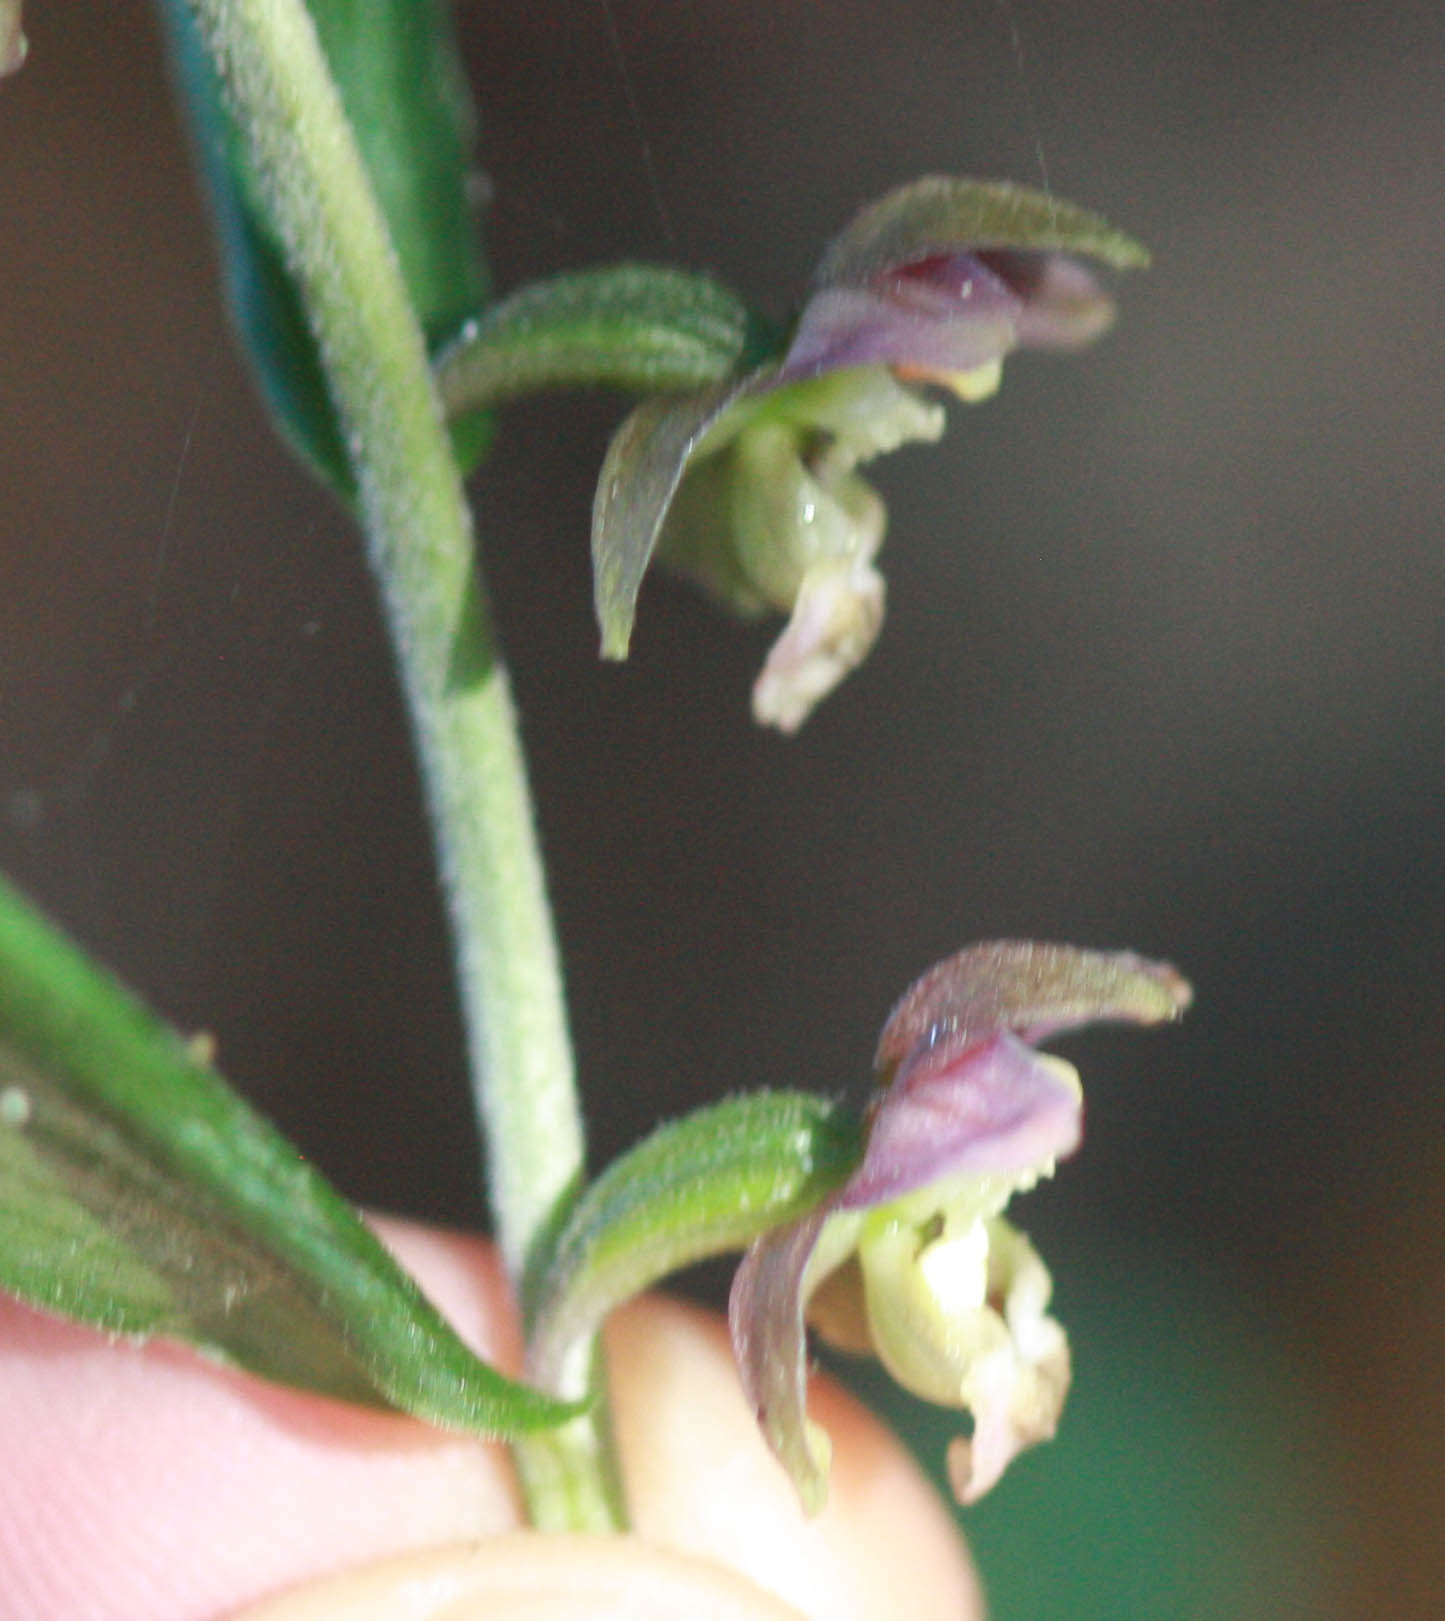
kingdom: Plantae
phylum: Tracheophyta
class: Liliopsida
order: Asparagales
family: Orchidaceae
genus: Epipactis
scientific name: Epipactis helleborine
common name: Broad-leaved helleborine
